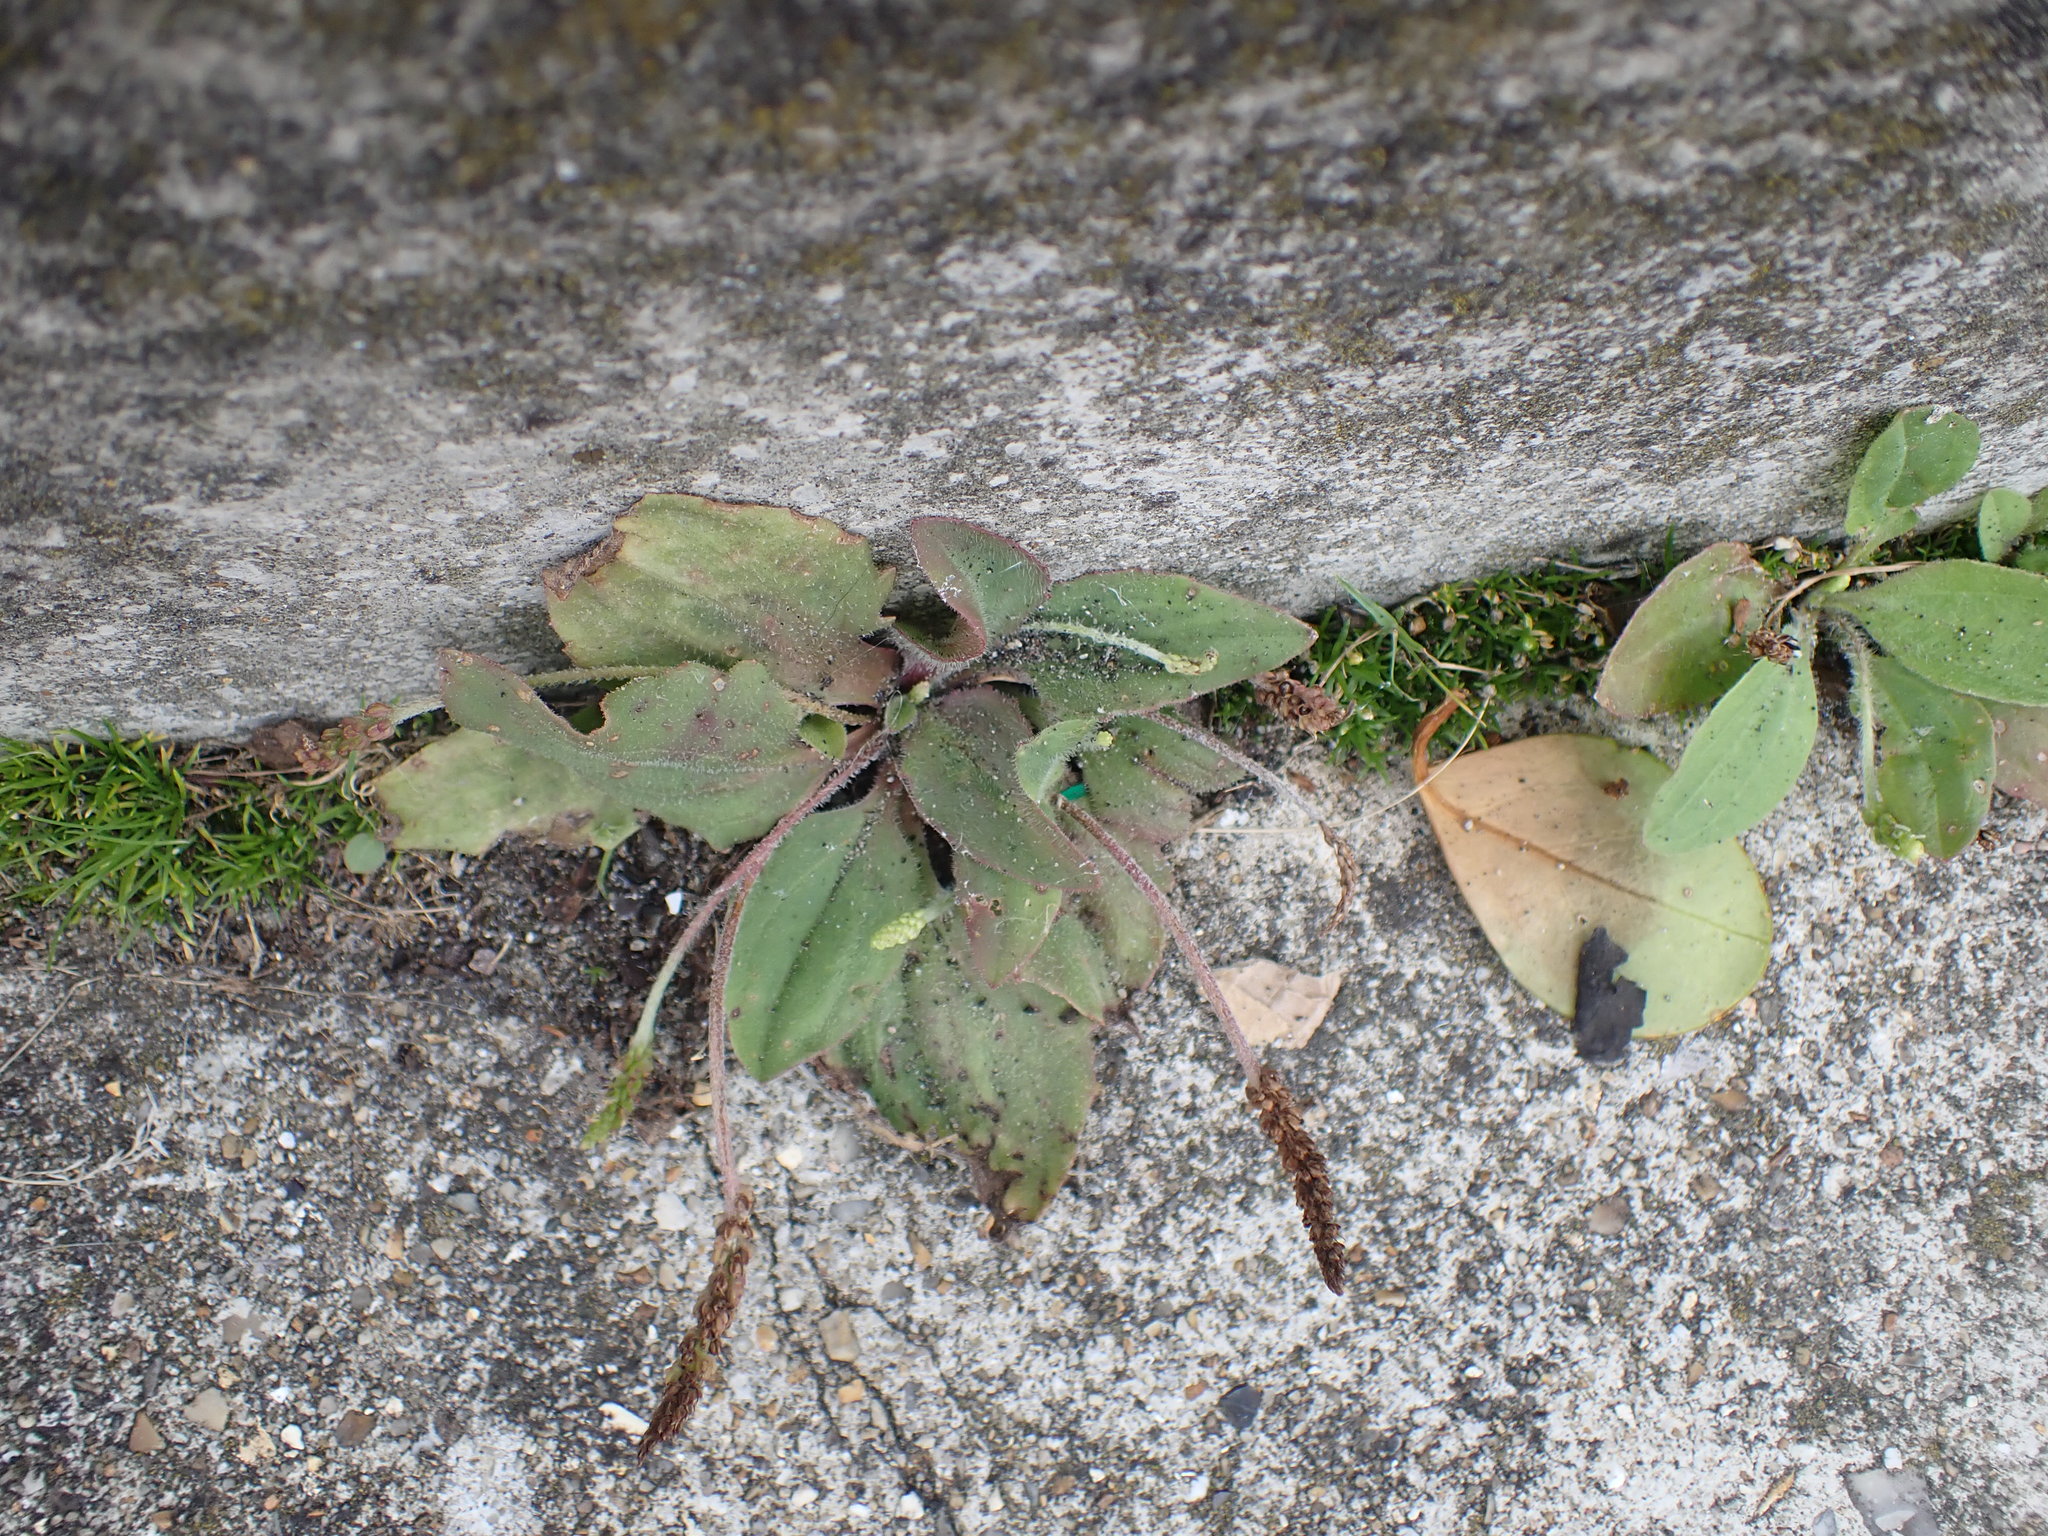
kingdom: Plantae
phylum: Tracheophyta
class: Magnoliopsida
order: Lamiales
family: Plantaginaceae
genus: Plantago
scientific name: Plantago major
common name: Common plantain
